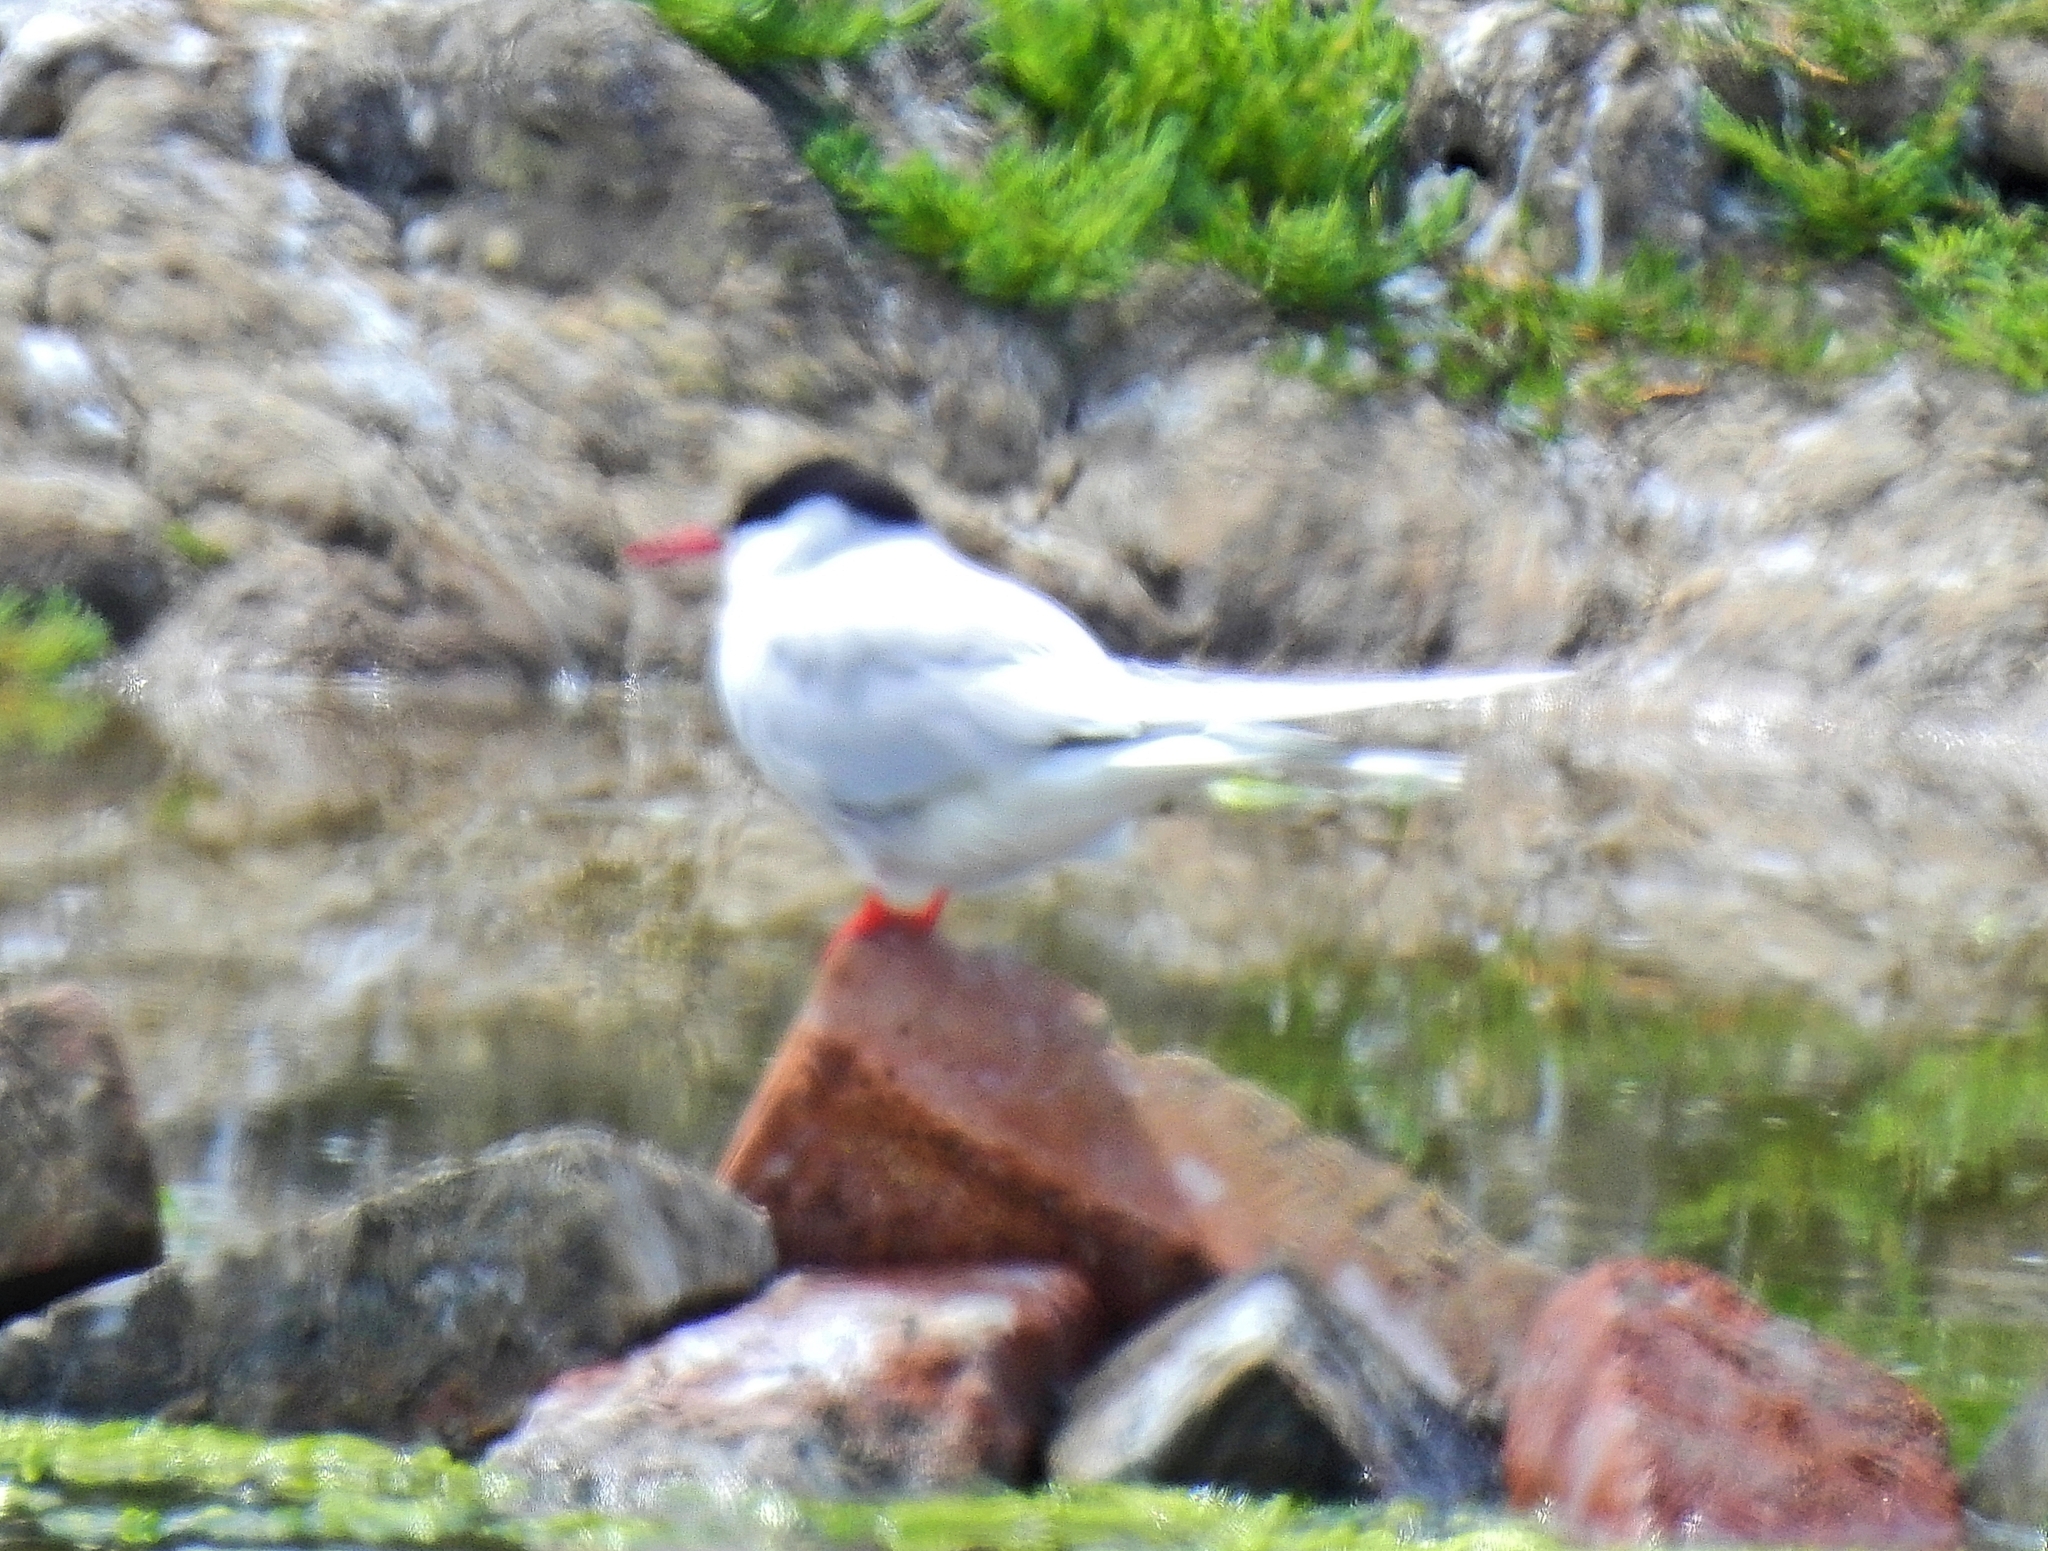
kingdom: Animalia
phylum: Chordata
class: Aves
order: Charadriiformes
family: Laridae
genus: Sterna
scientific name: Sterna paradisaea
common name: Arctic tern
